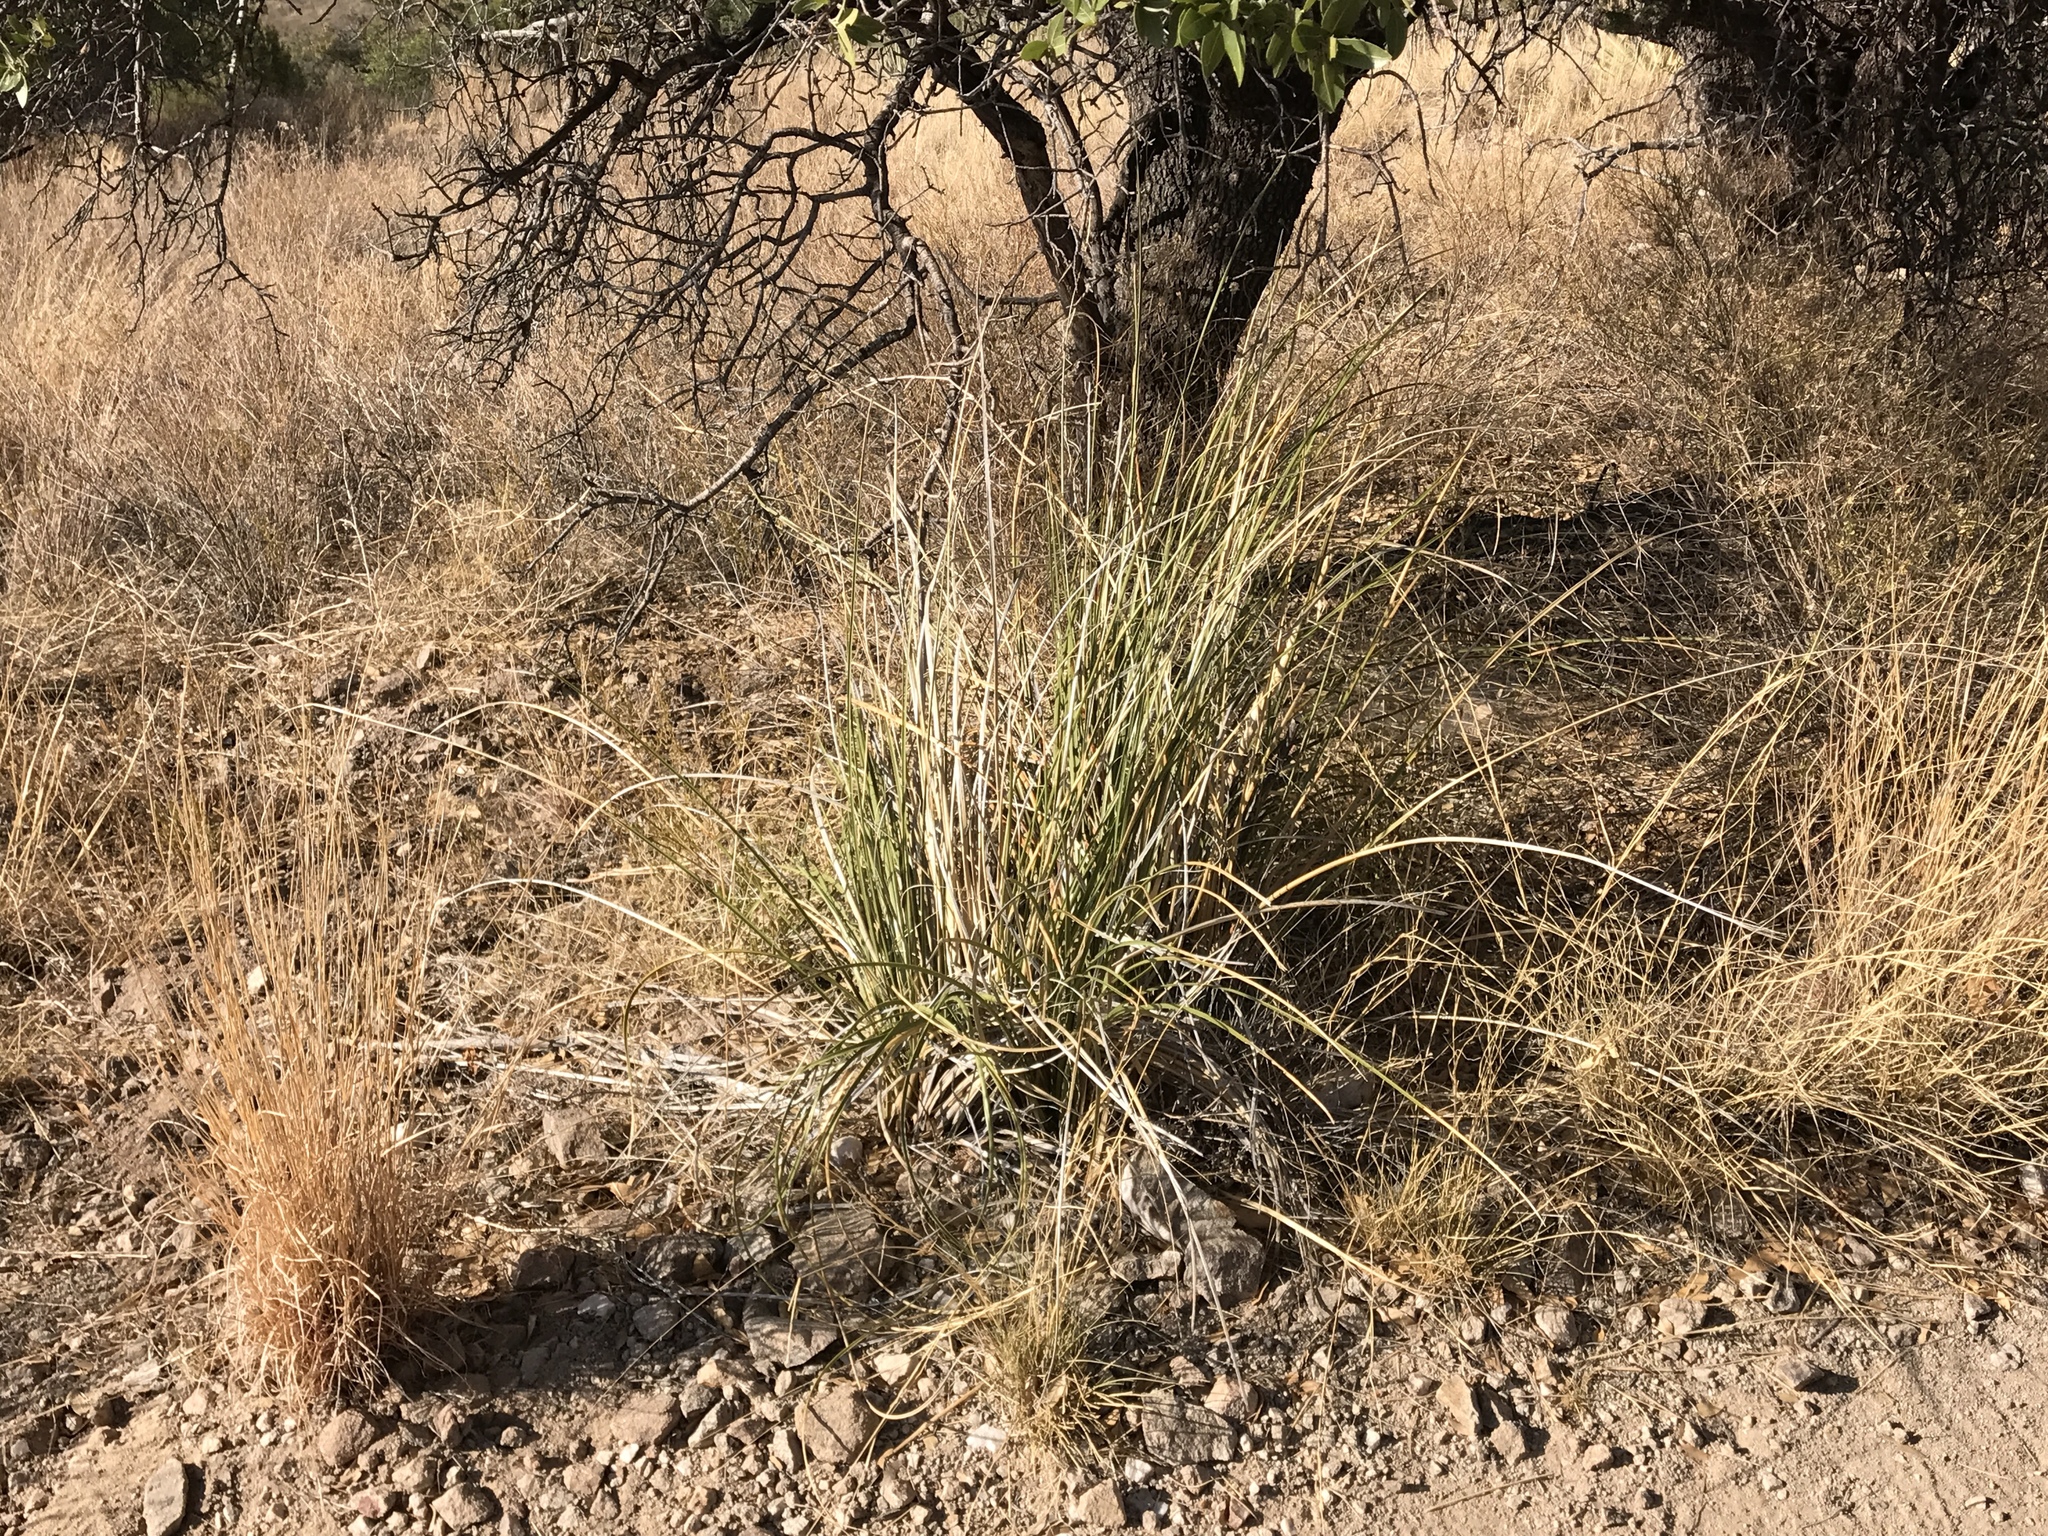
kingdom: Plantae
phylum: Tracheophyta
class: Liliopsida
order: Asparagales
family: Asparagaceae
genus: Nolina
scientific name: Nolina microcarpa
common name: Bear-grass
